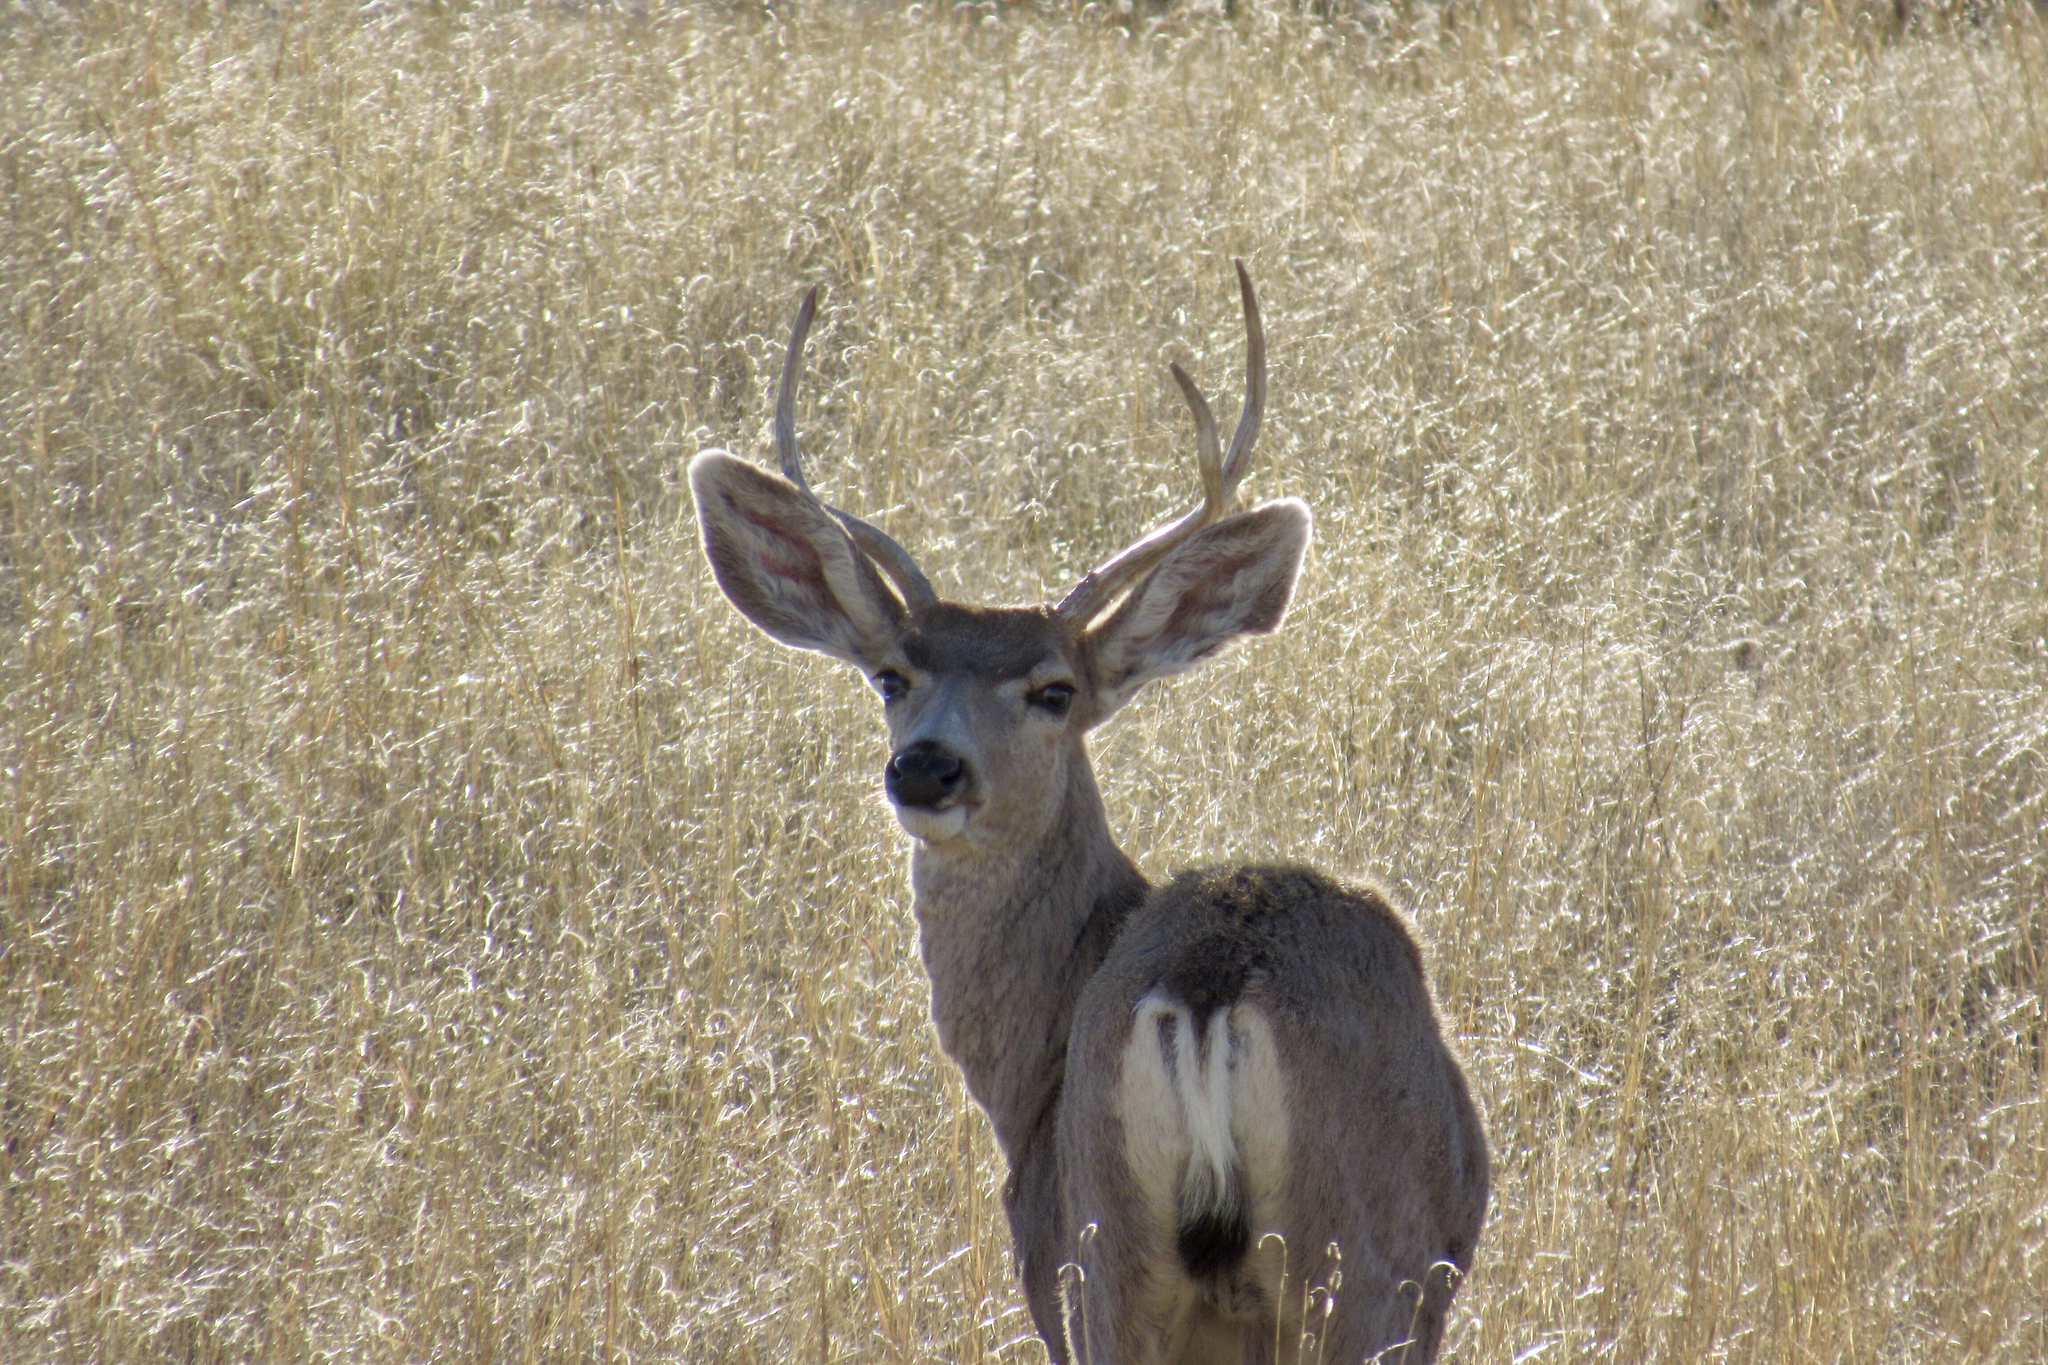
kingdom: Animalia
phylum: Chordata
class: Mammalia
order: Artiodactyla
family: Cervidae
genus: Odocoileus
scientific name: Odocoileus hemionus
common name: Mule deer
